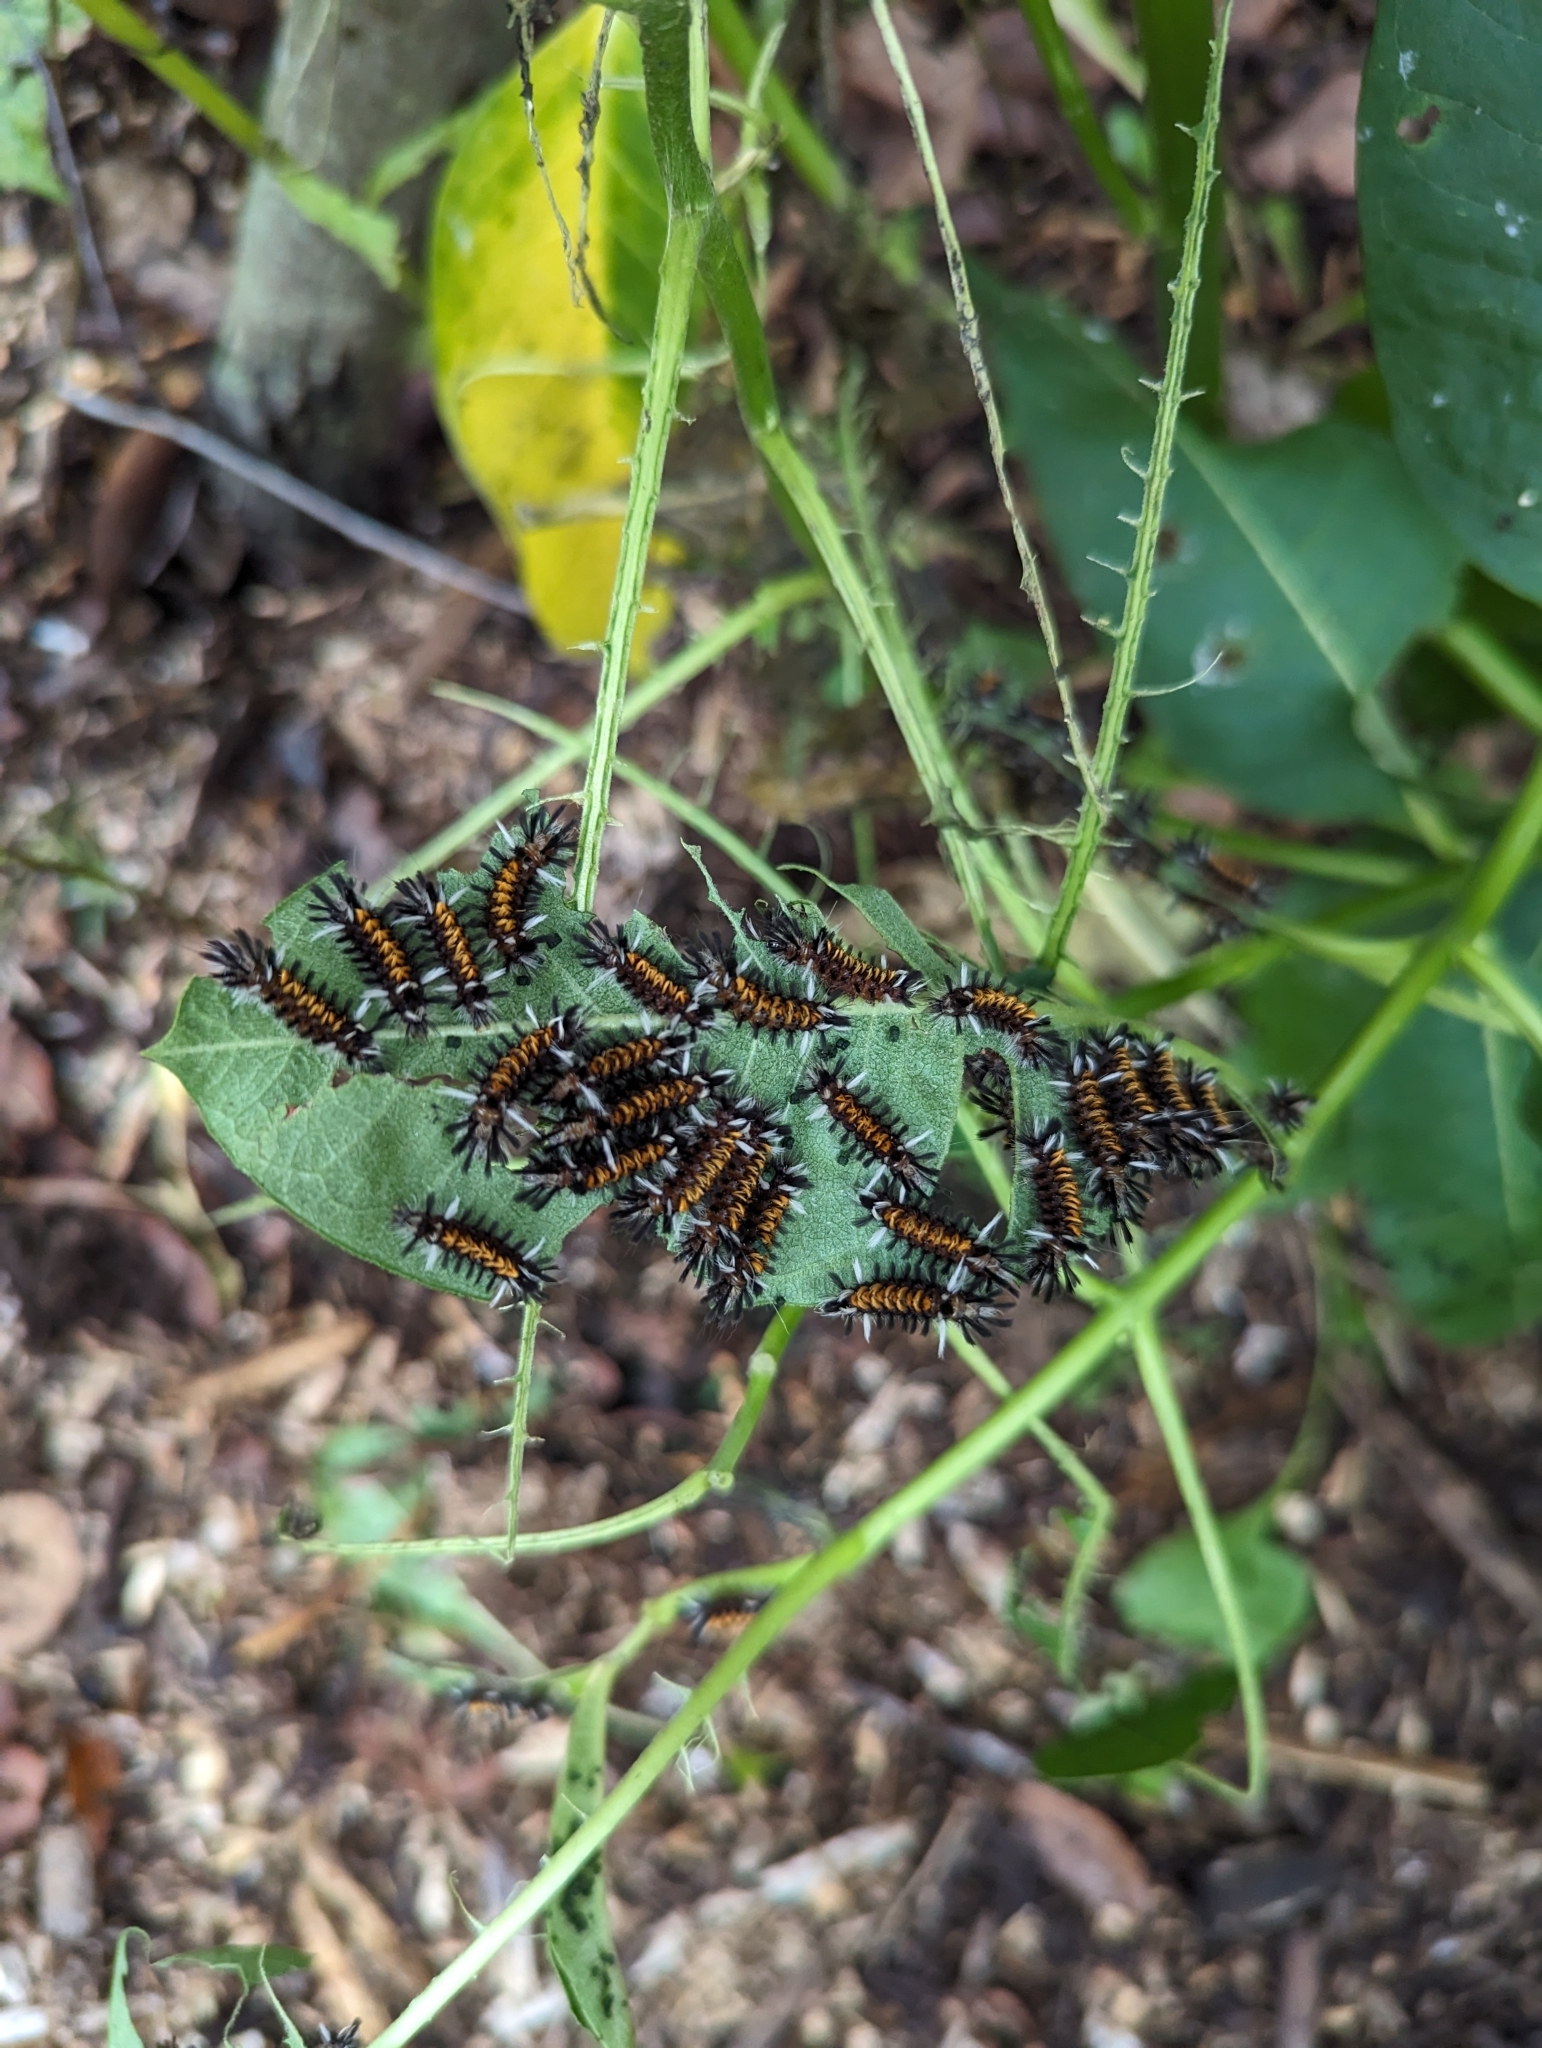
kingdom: Animalia
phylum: Arthropoda
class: Insecta
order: Lepidoptera
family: Erebidae
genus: Euchaetes
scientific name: Euchaetes egle
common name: Milkweed tussock moth
